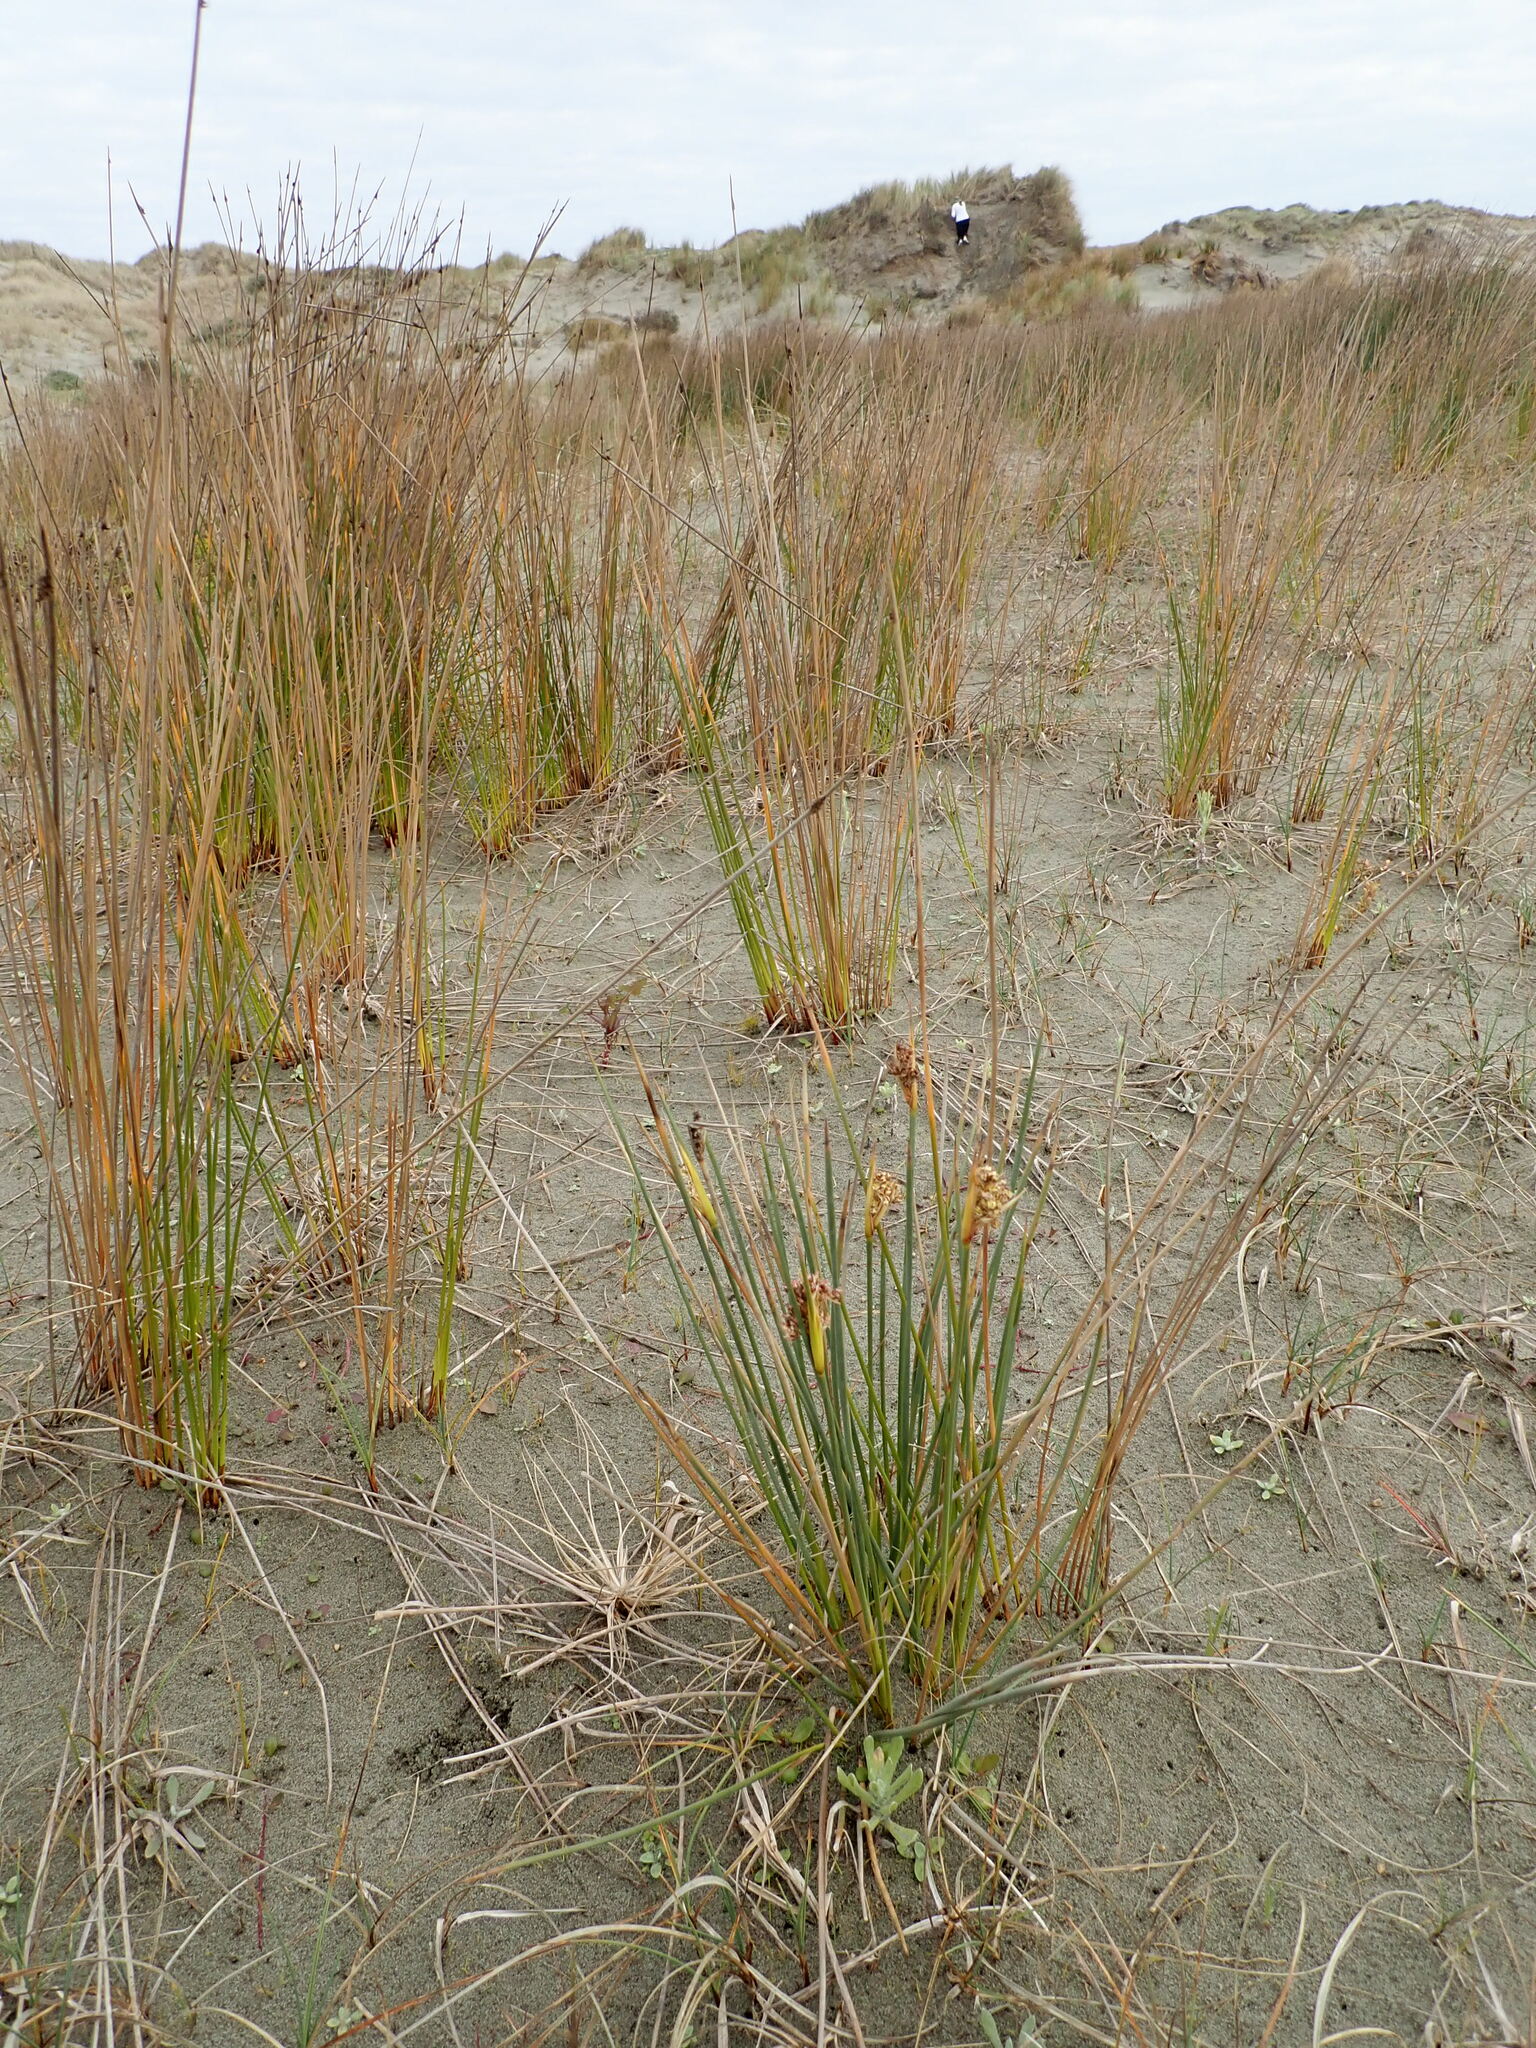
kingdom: Plantae
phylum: Tracheophyta
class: Liliopsida
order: Poales
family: Juncaceae
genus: Juncus
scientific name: Juncus acutus
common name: Sharp rush
